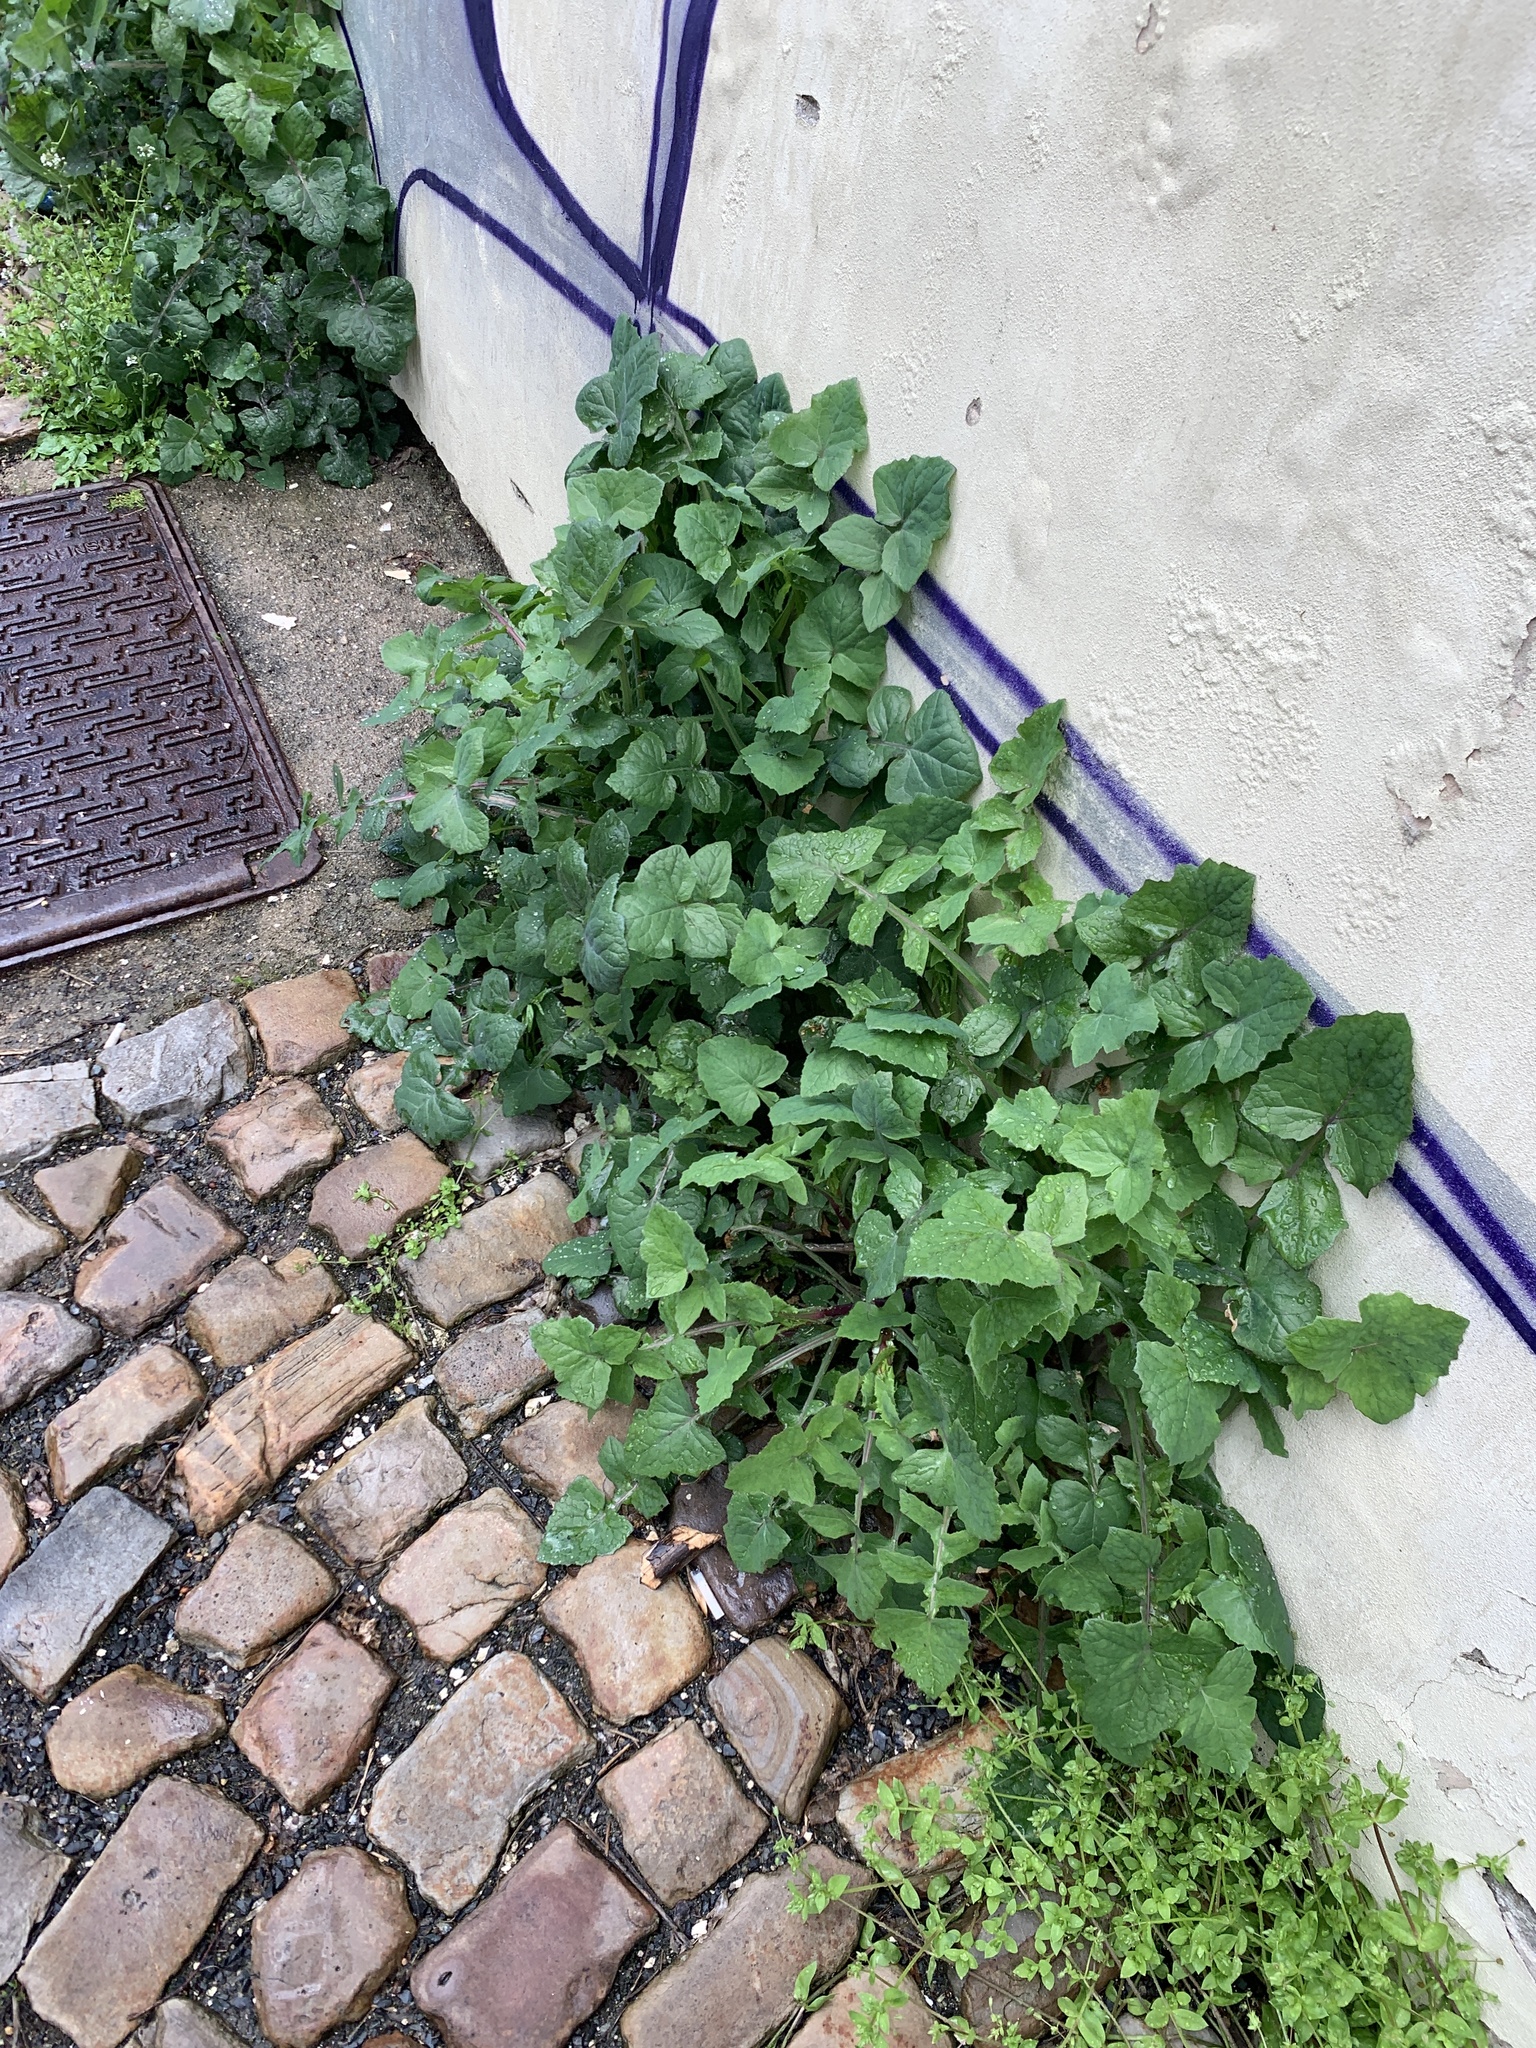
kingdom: Plantae
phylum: Tracheophyta
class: Magnoliopsida
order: Asterales
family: Asteraceae
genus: Sonchus
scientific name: Sonchus oleraceus
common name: Common sowthistle
